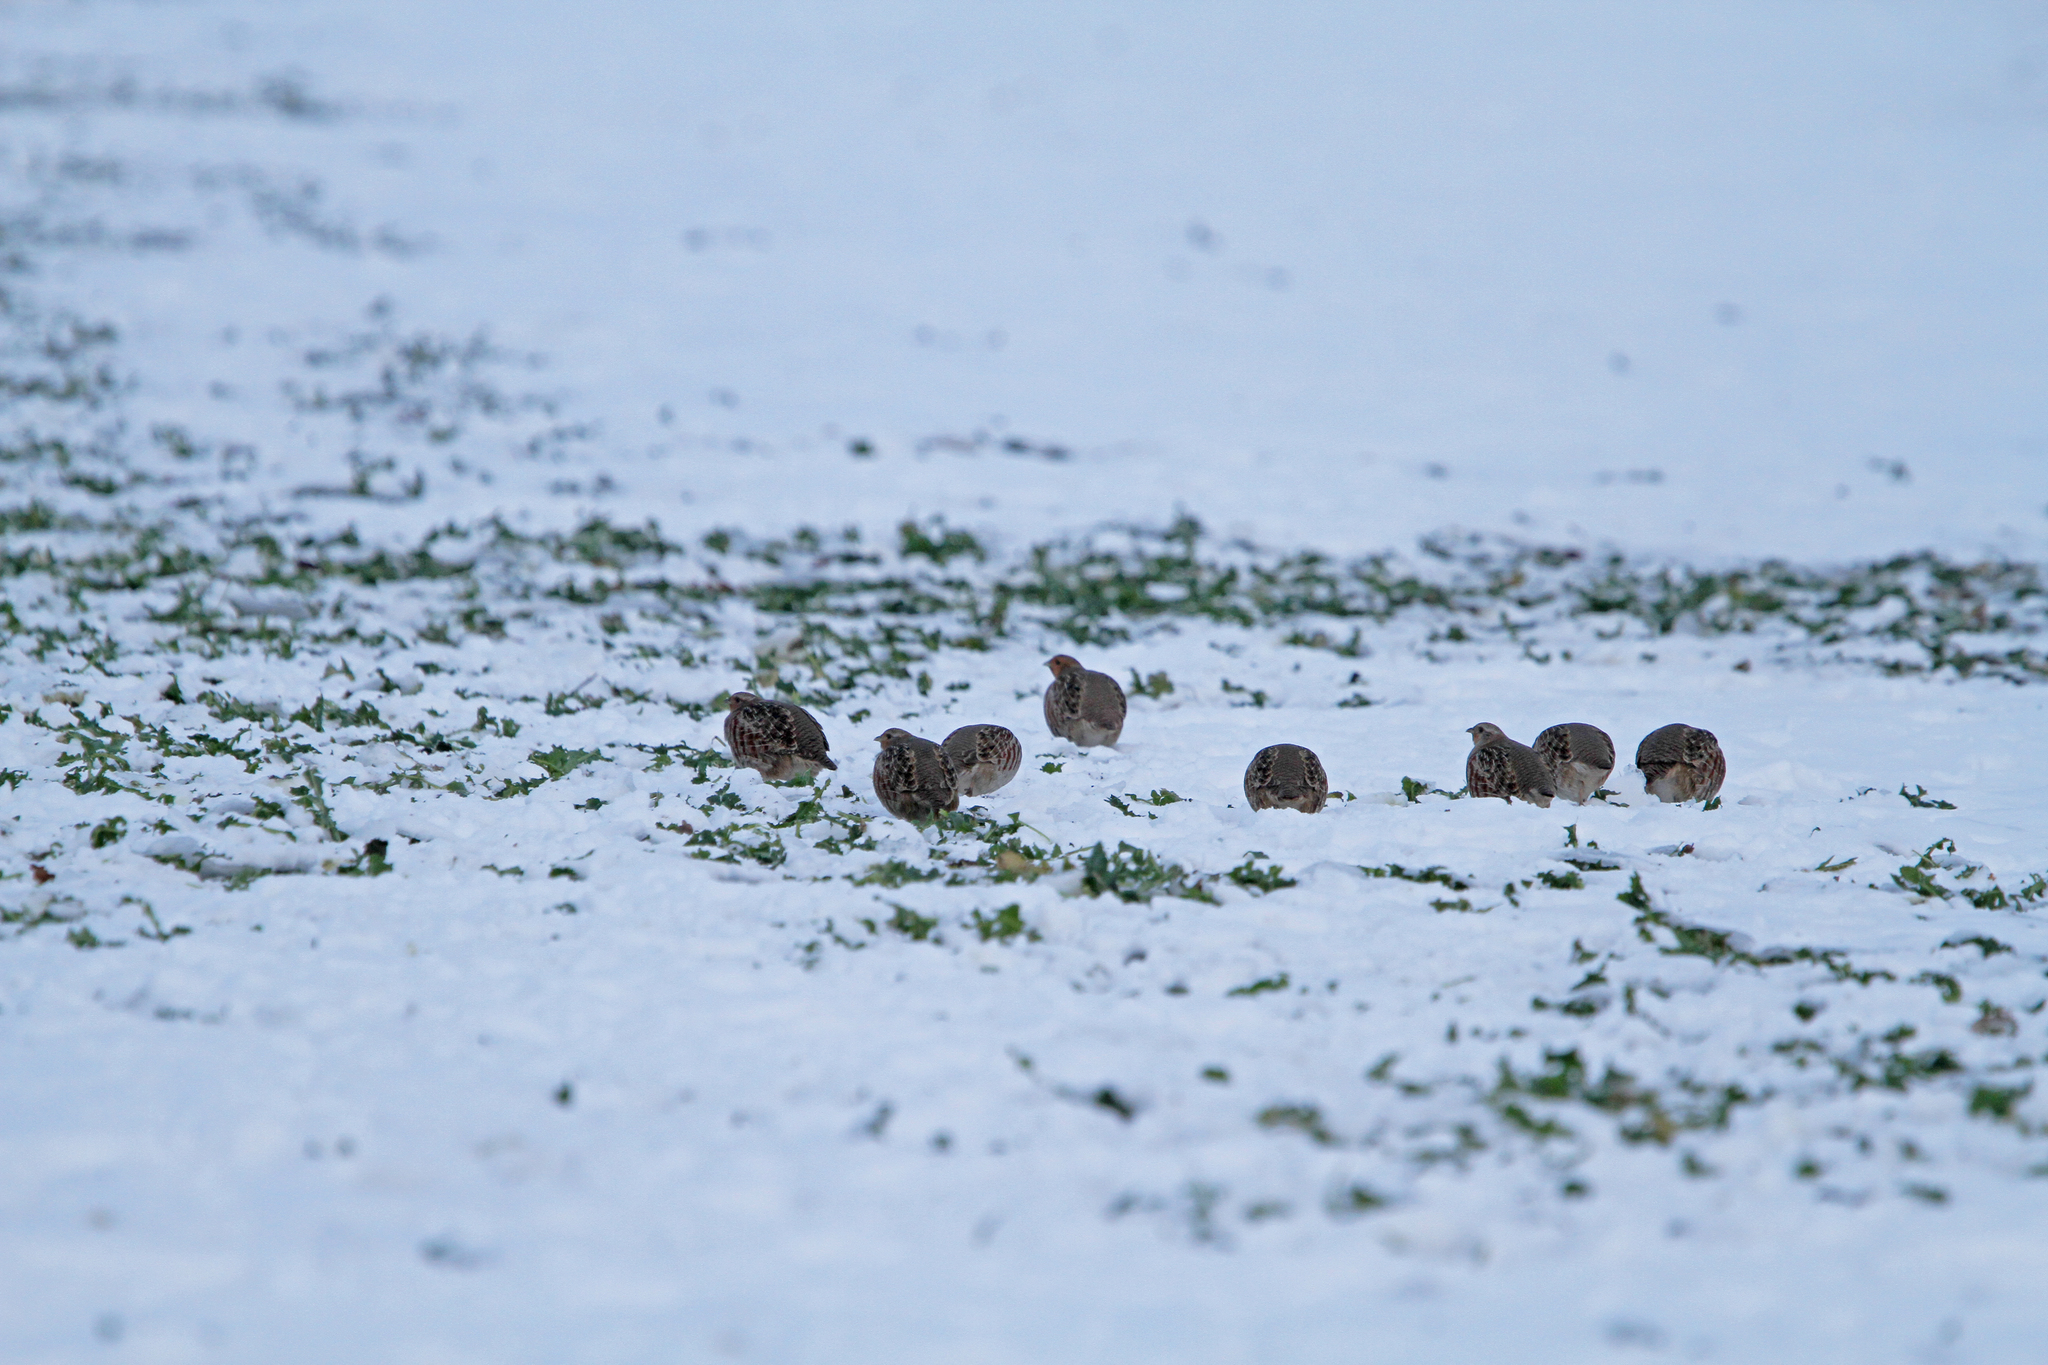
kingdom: Animalia
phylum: Chordata
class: Aves
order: Galliformes
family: Phasianidae
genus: Perdix
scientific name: Perdix perdix
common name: Grey partridge
